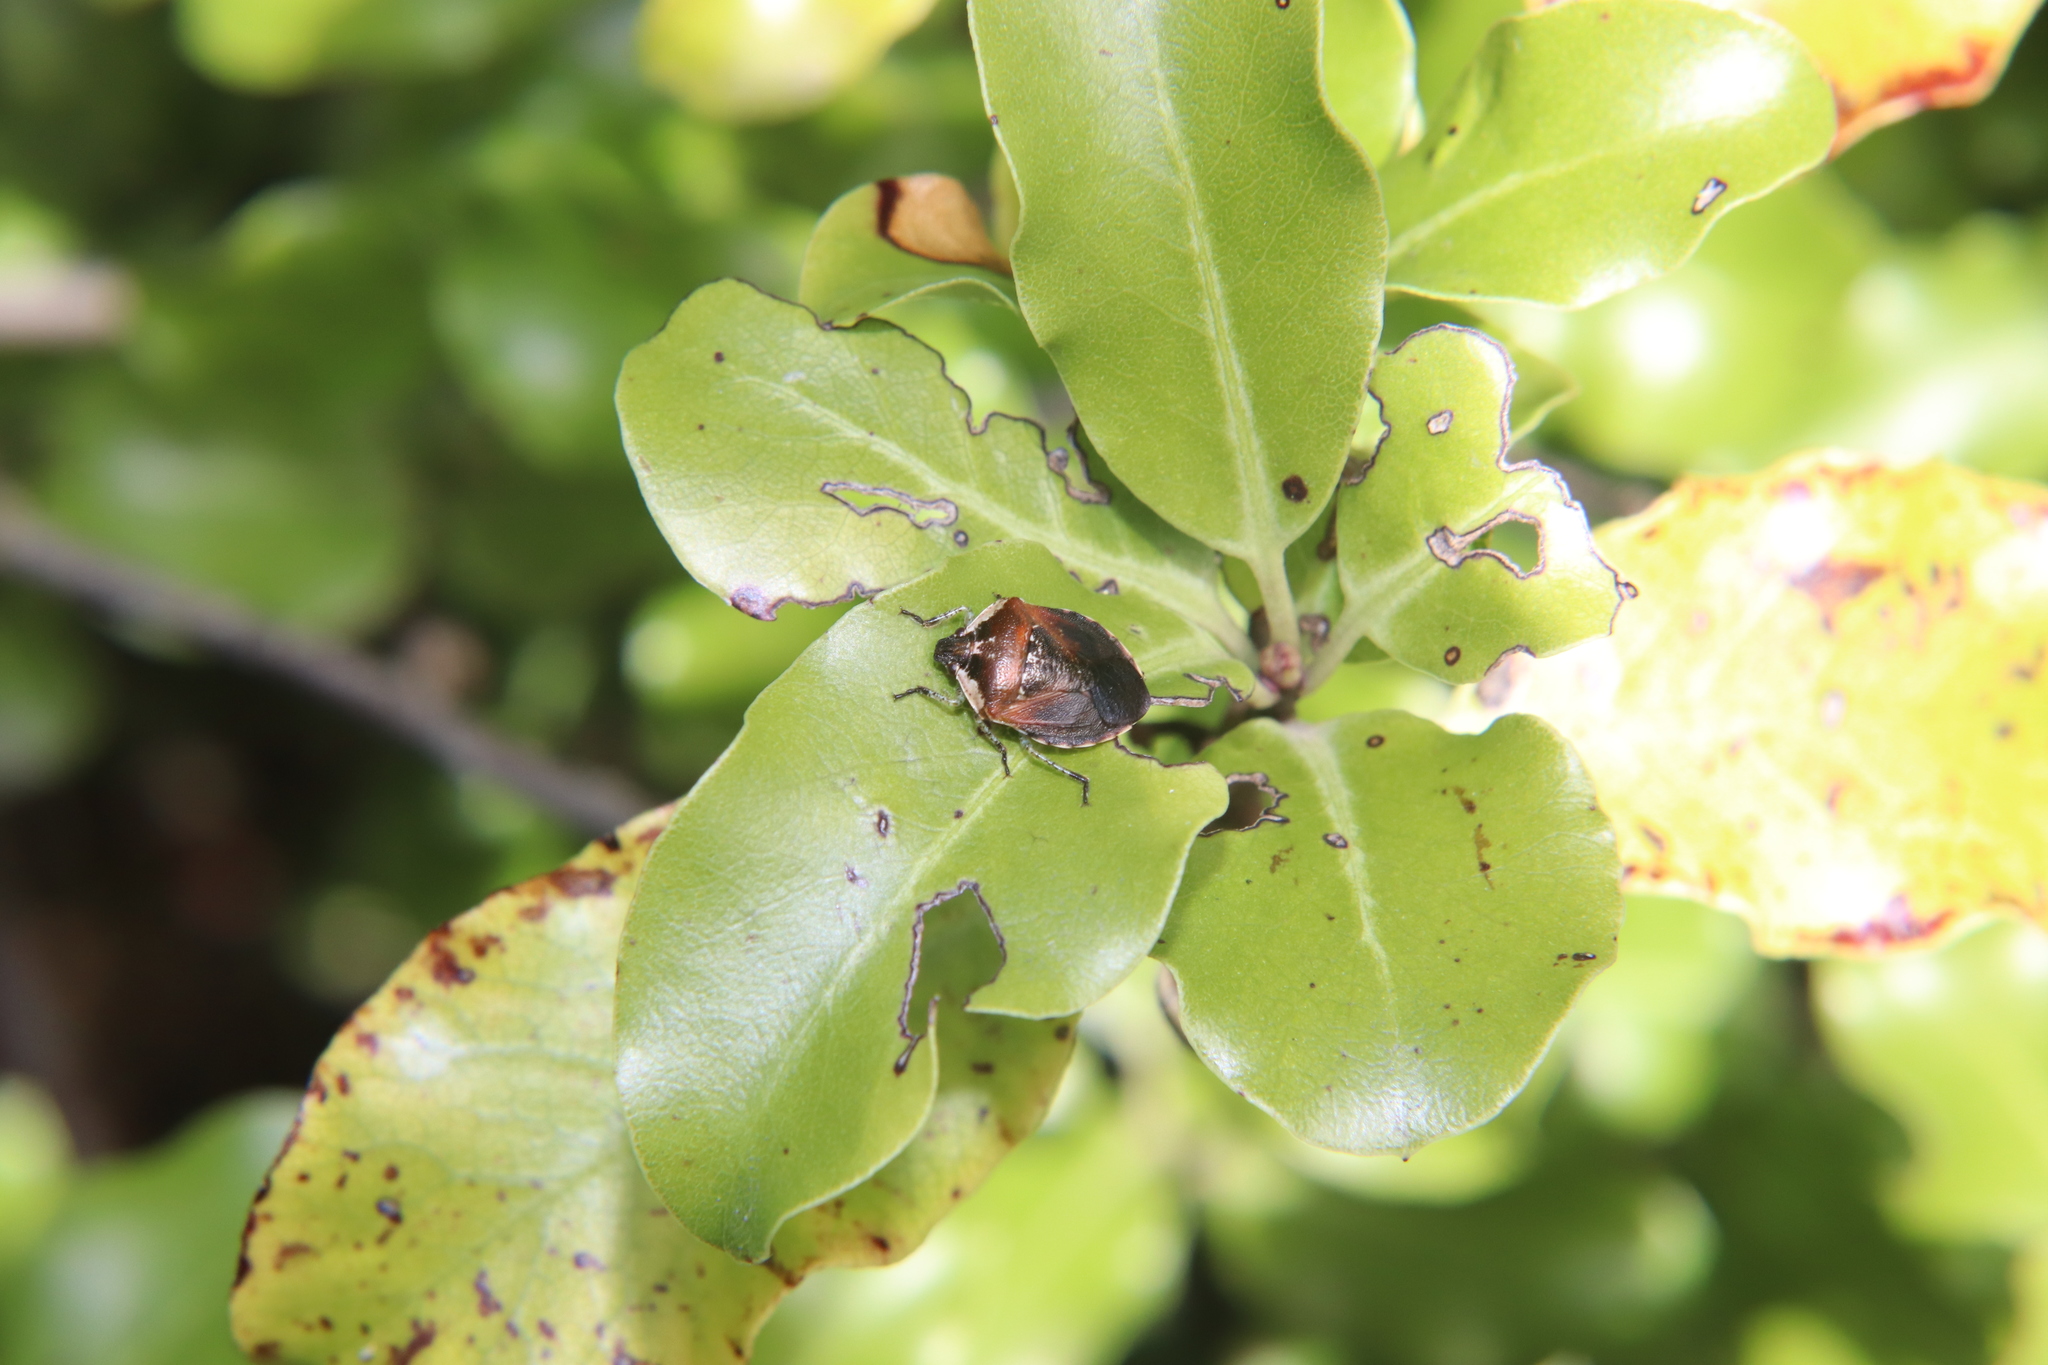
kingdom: Animalia
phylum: Arthropoda
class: Insecta
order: Hemiptera
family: Pentatomidae
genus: Monteithiella
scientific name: Monteithiella
